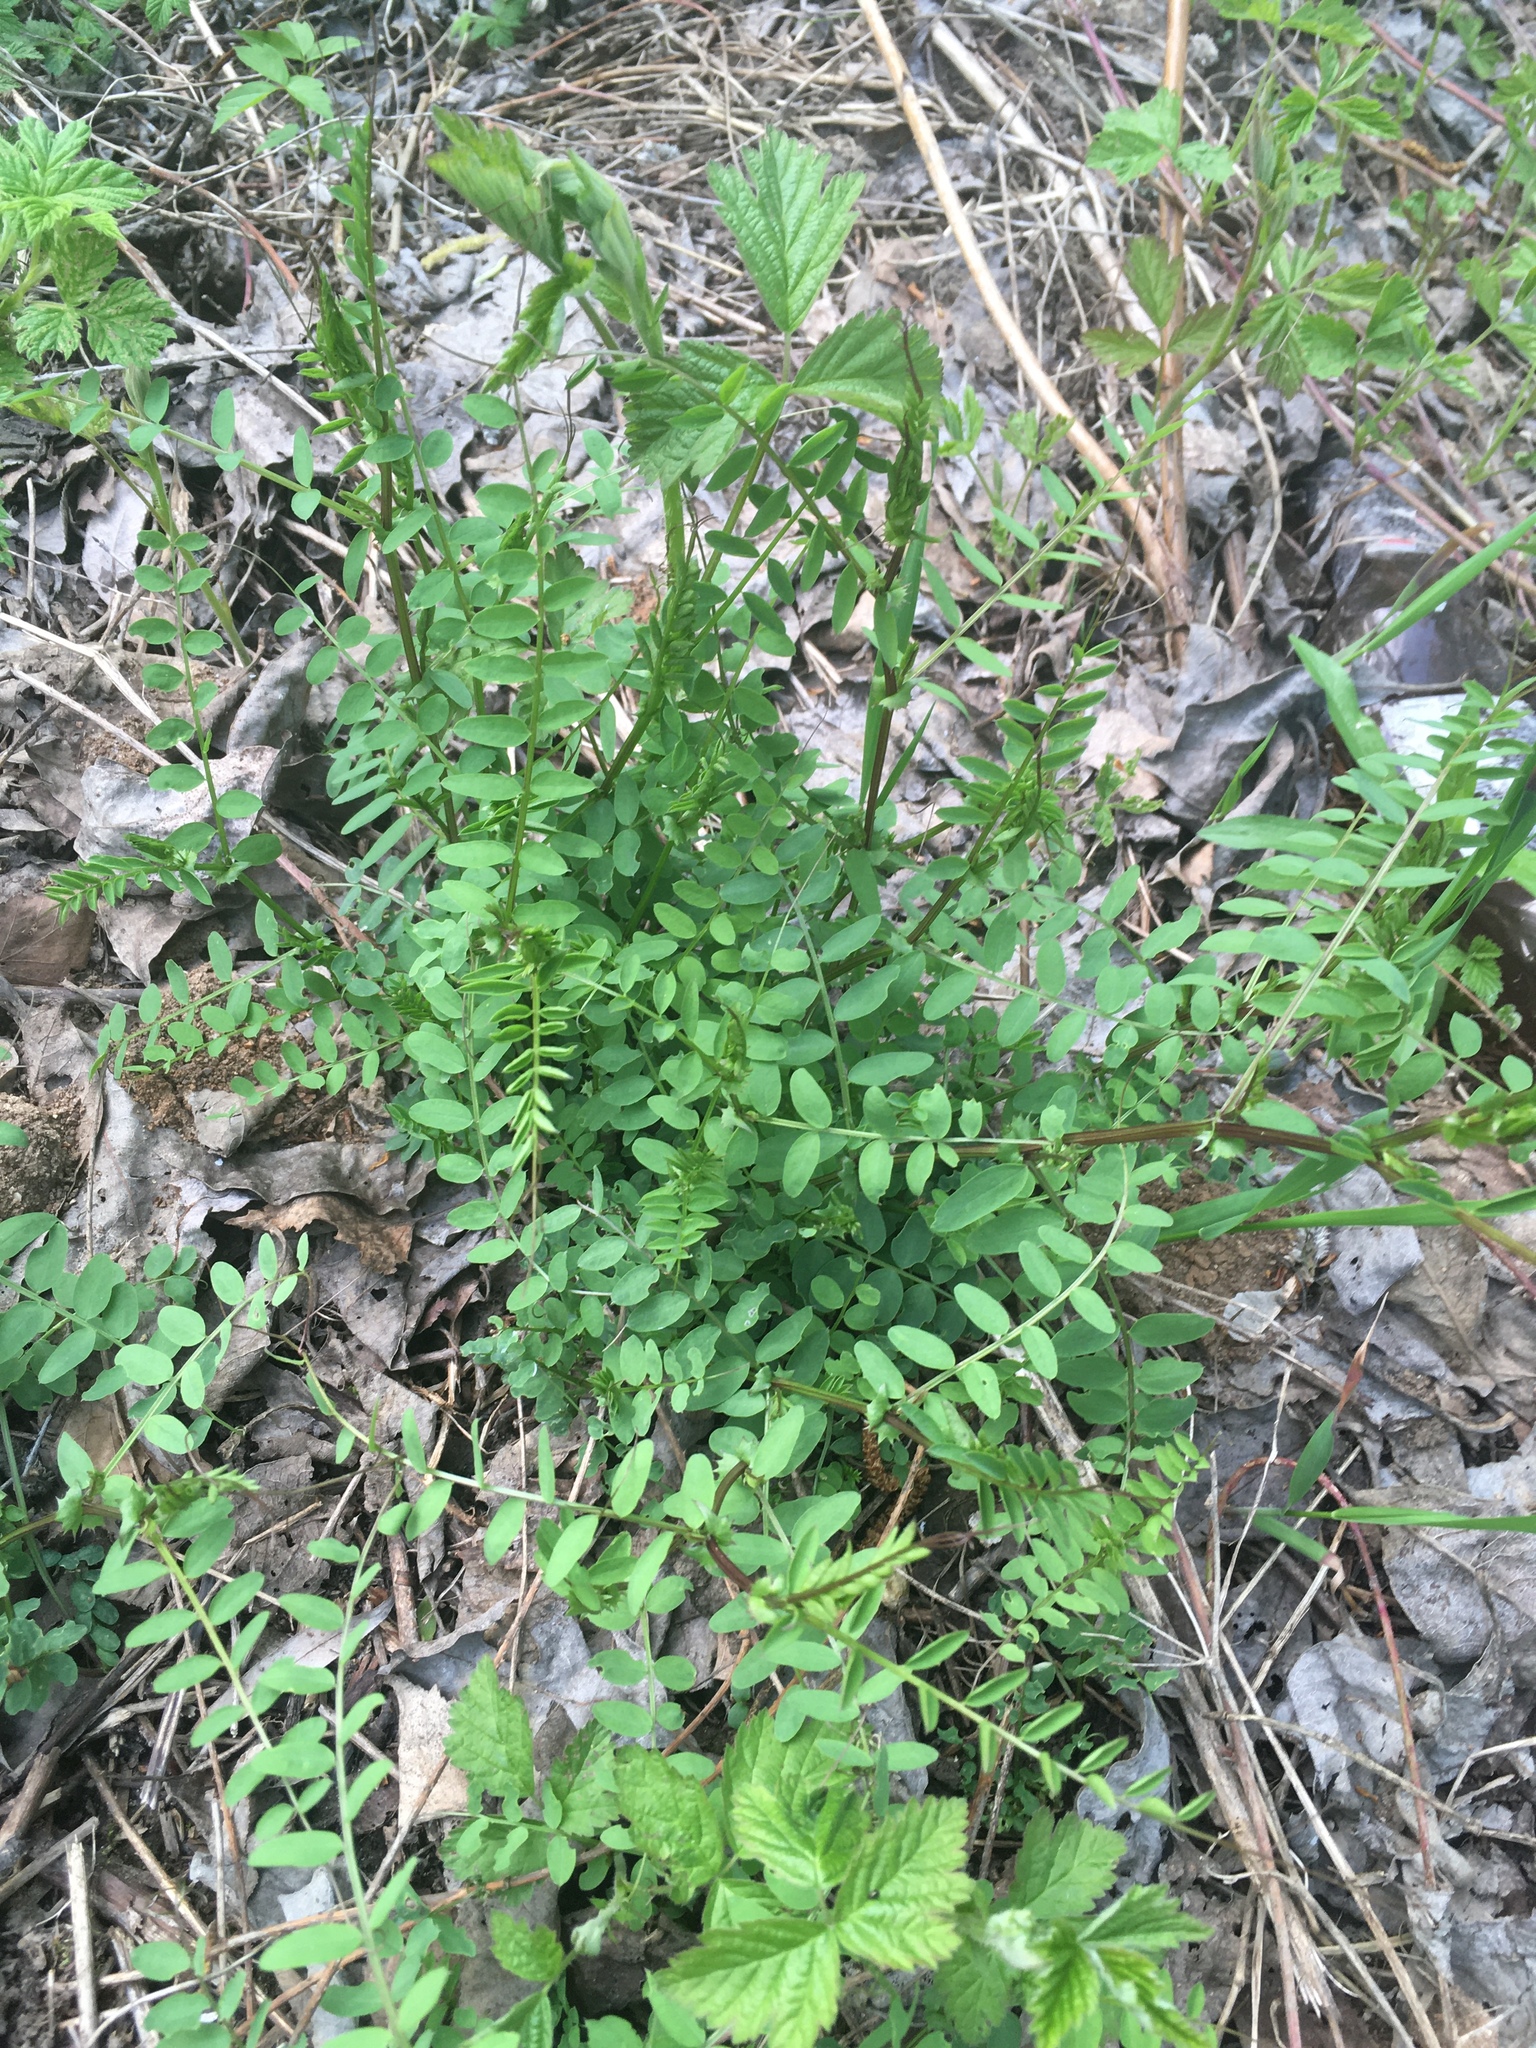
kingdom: Plantae
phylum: Tracheophyta
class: Magnoliopsida
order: Fabales
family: Fabaceae
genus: Vicia
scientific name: Vicia sylvatica
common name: Wood vetch
